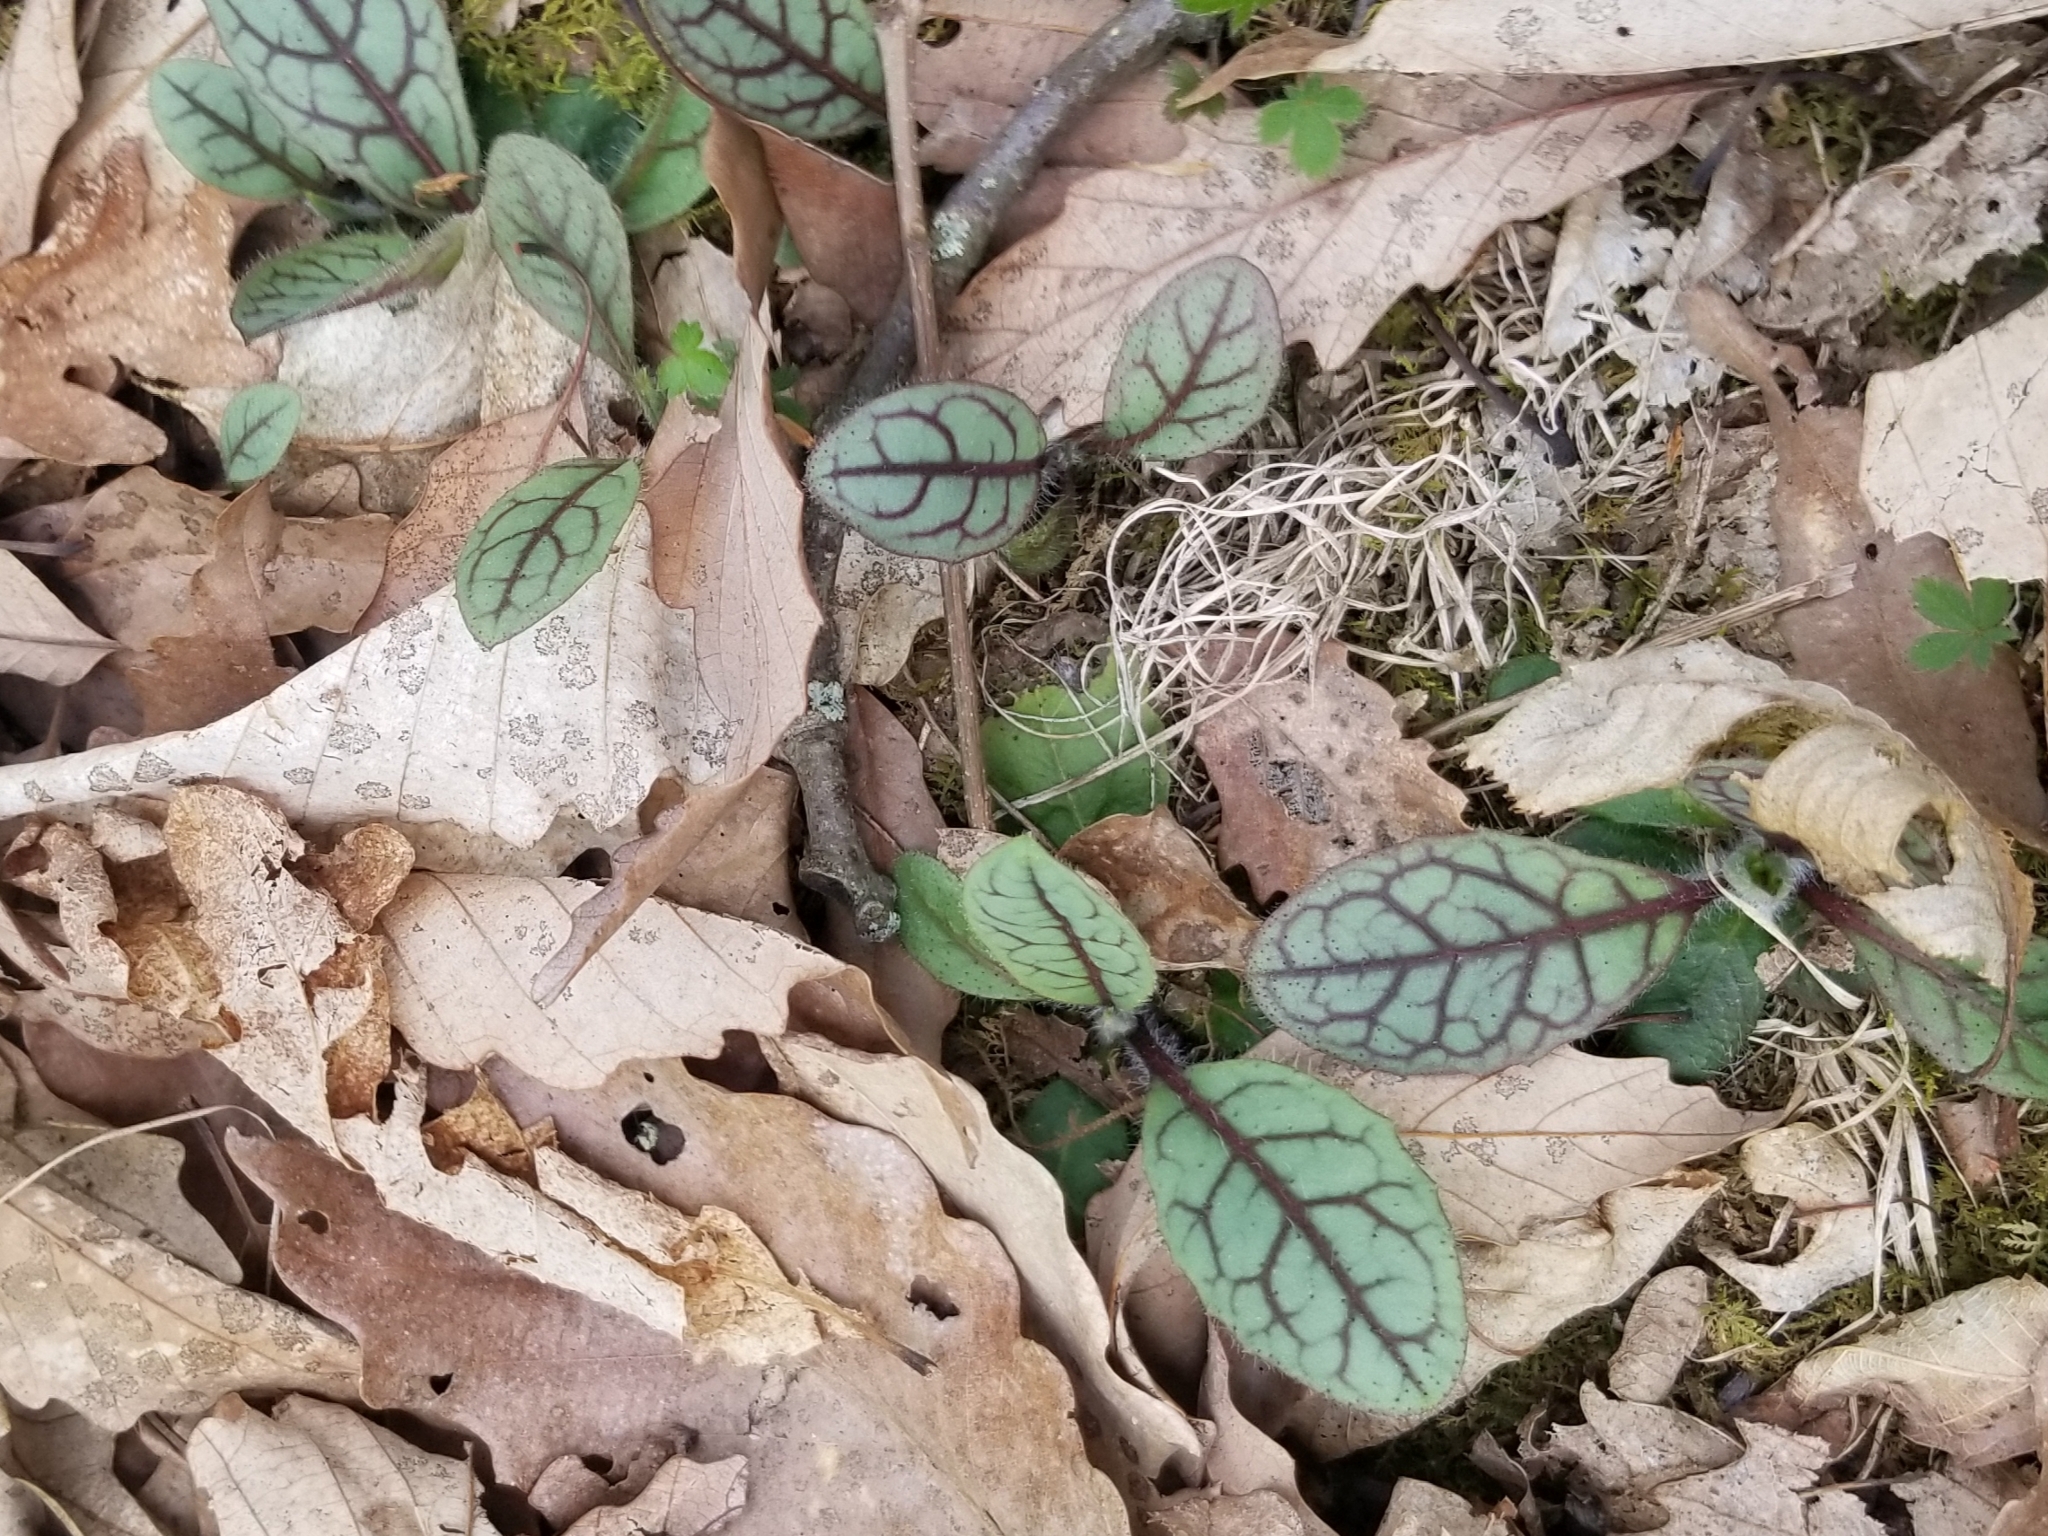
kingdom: Plantae
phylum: Tracheophyta
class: Magnoliopsida
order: Asterales
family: Asteraceae
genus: Hieracium
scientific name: Hieracium venosum
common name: Rattlesnake hawkweed
